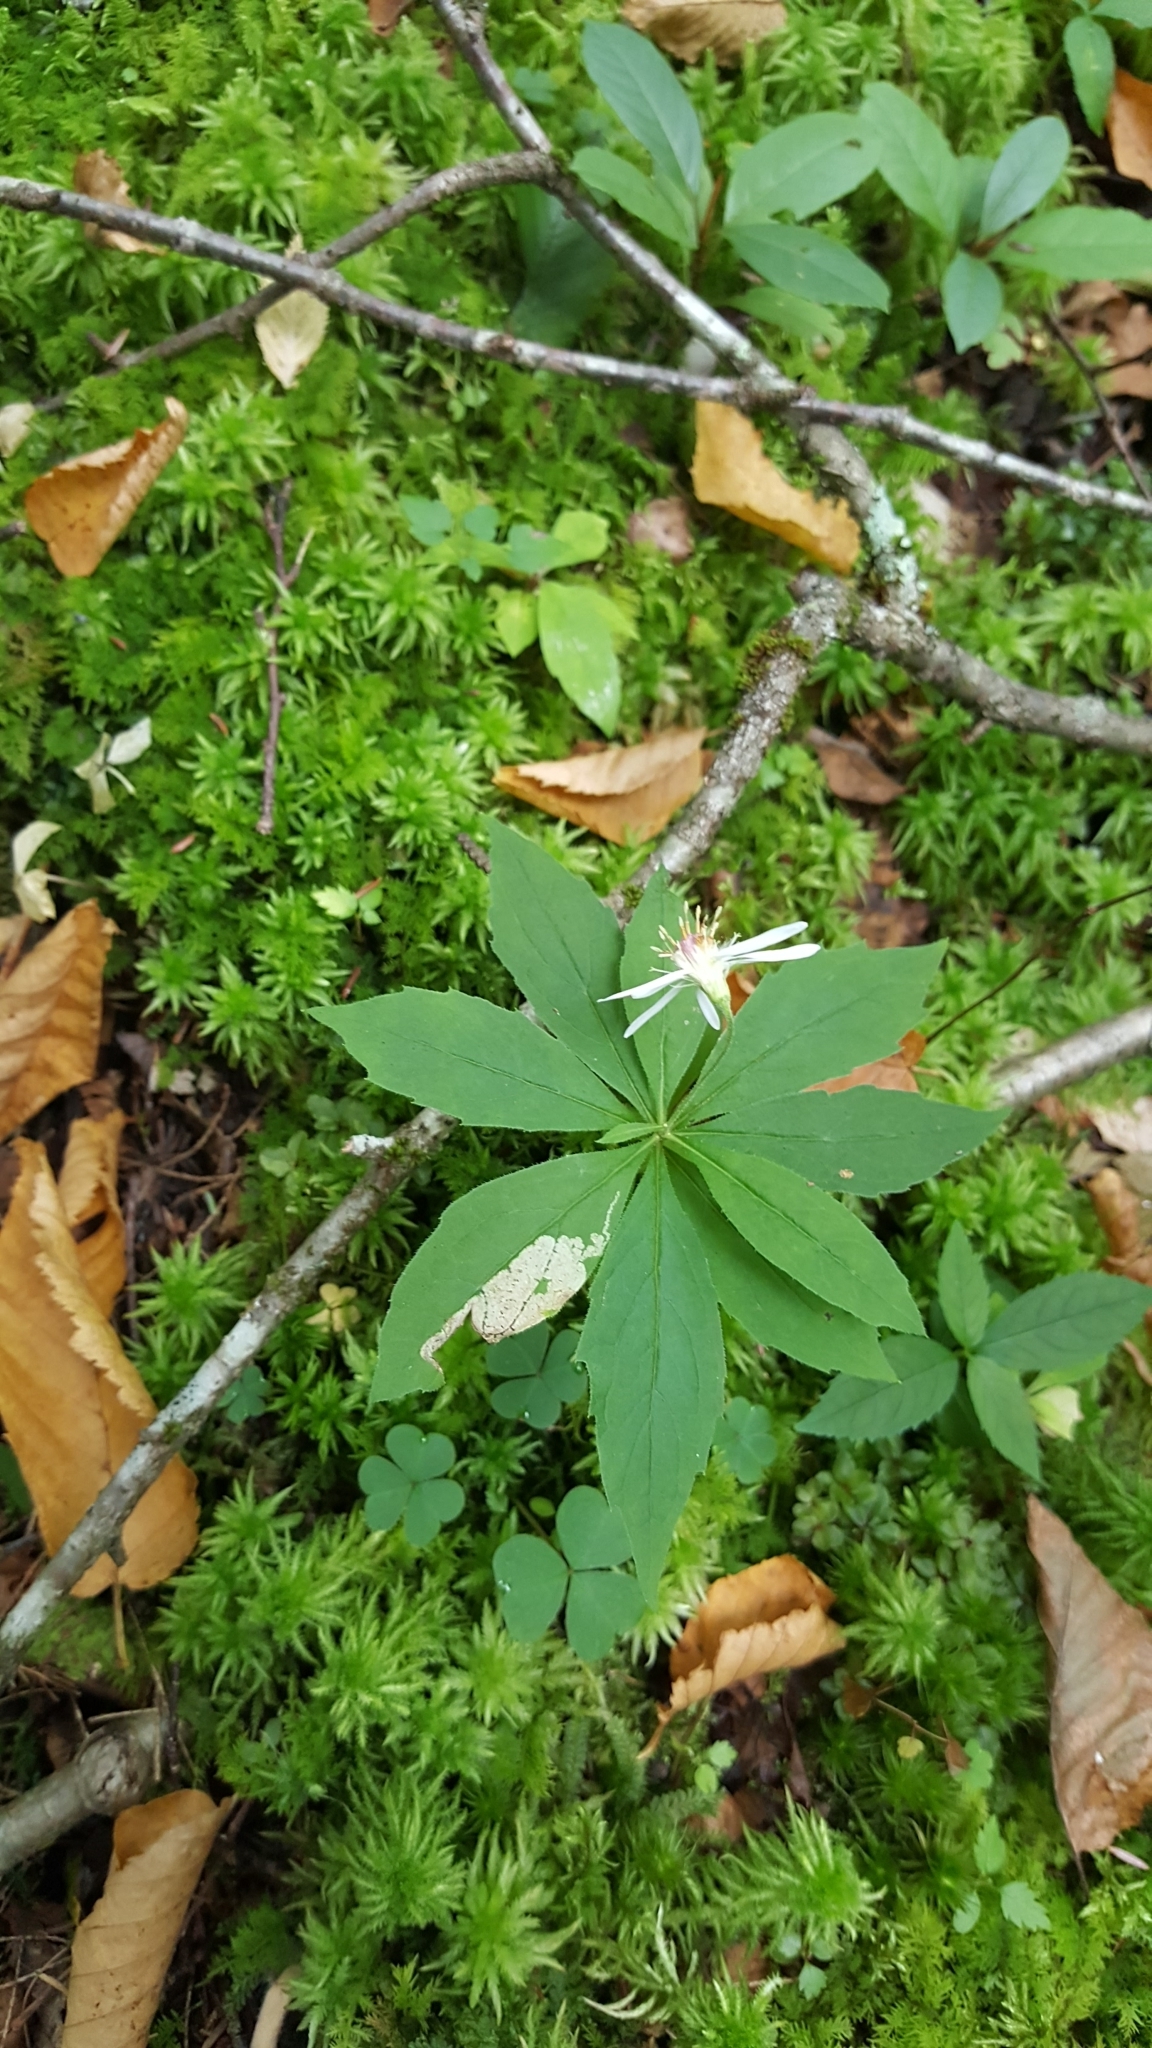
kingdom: Plantae
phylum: Tracheophyta
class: Magnoliopsida
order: Asterales
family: Asteraceae
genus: Oclemena
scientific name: Oclemena acuminata
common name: Mountain aster
